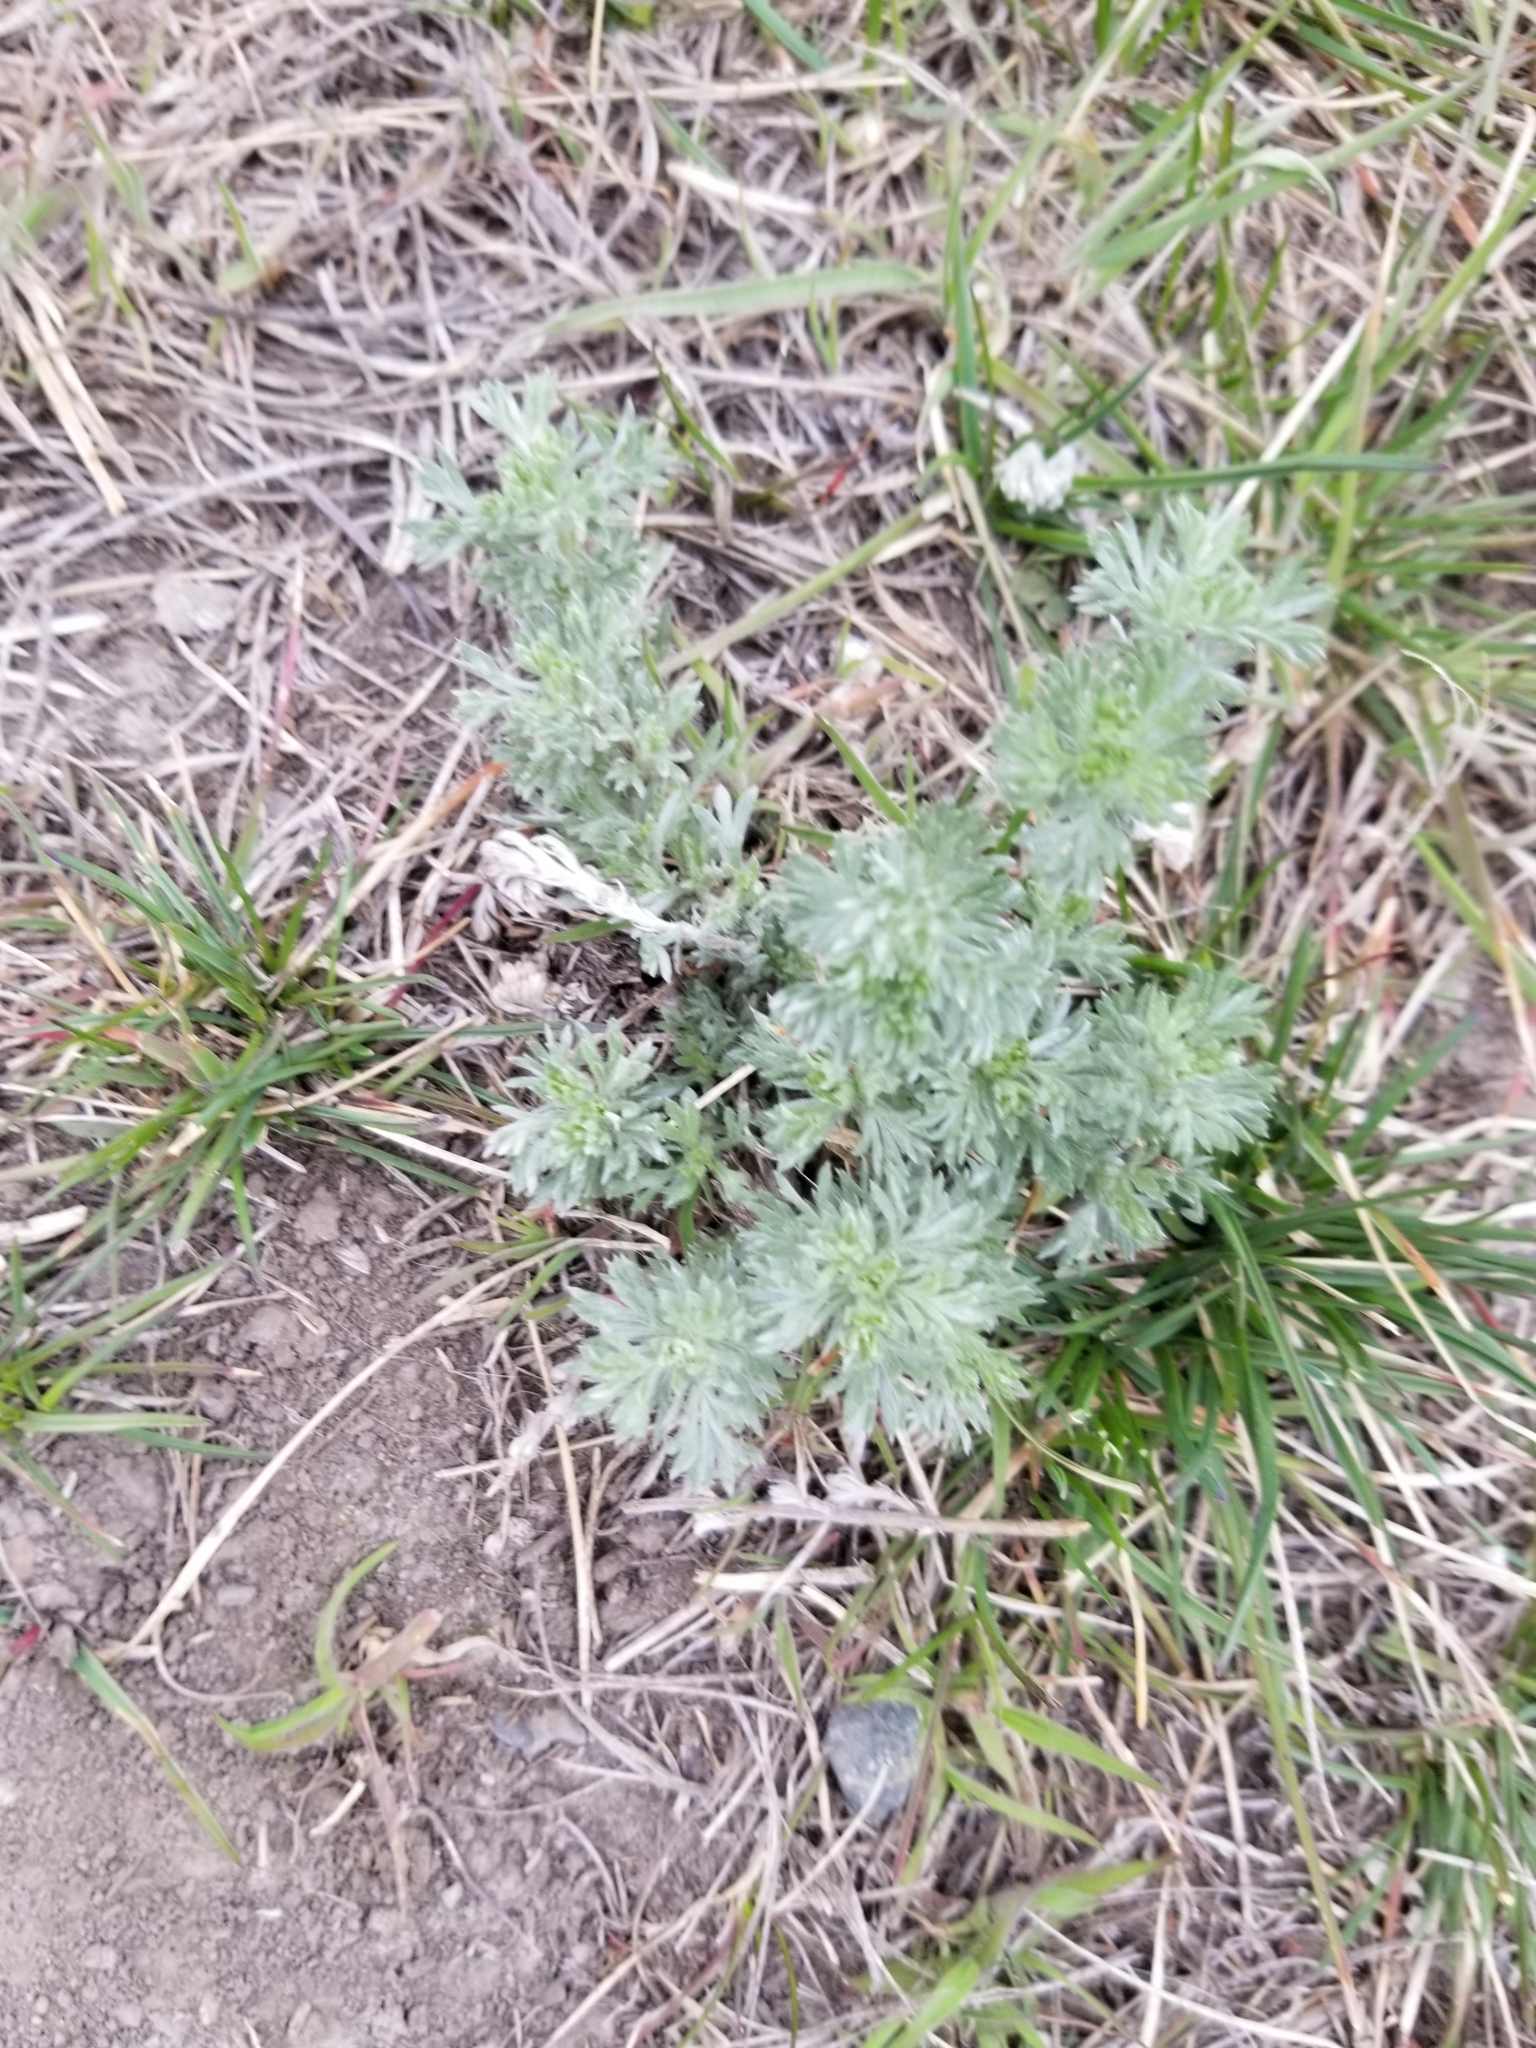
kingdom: Plantae
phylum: Tracheophyta
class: Magnoliopsida
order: Asterales
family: Asteraceae
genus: Artemisia
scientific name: Artemisia frigida
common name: Prairie sagewort
